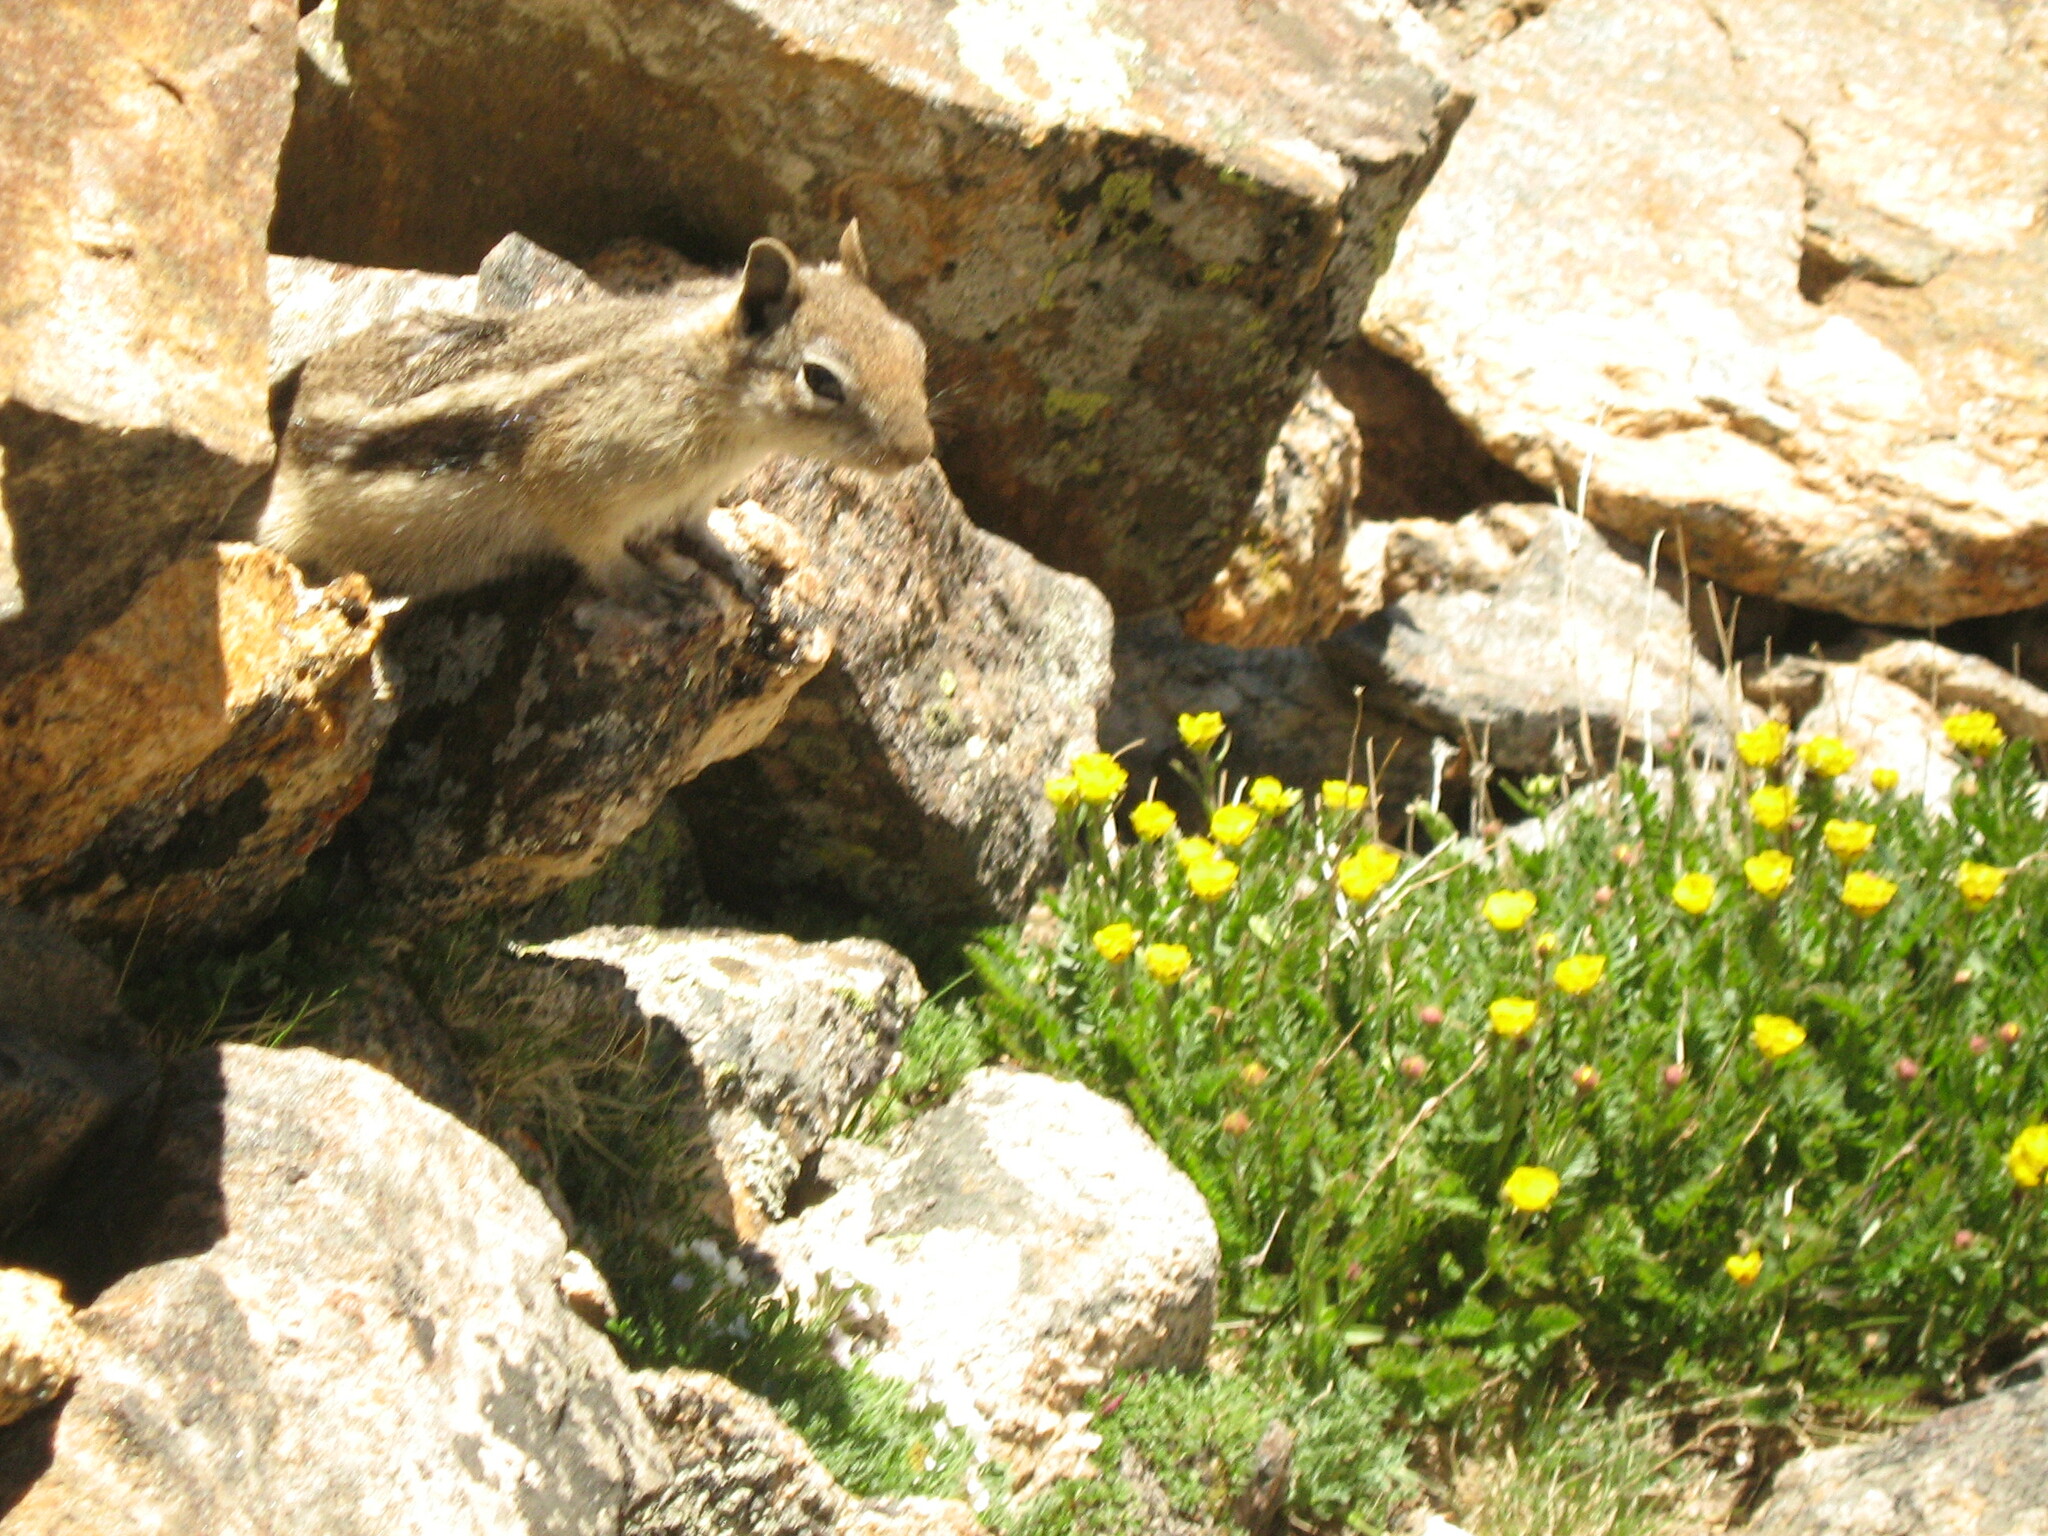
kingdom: Plantae
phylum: Tracheophyta
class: Magnoliopsida
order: Rosales
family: Rosaceae
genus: Geum
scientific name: Geum rossii
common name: Alpine avens
